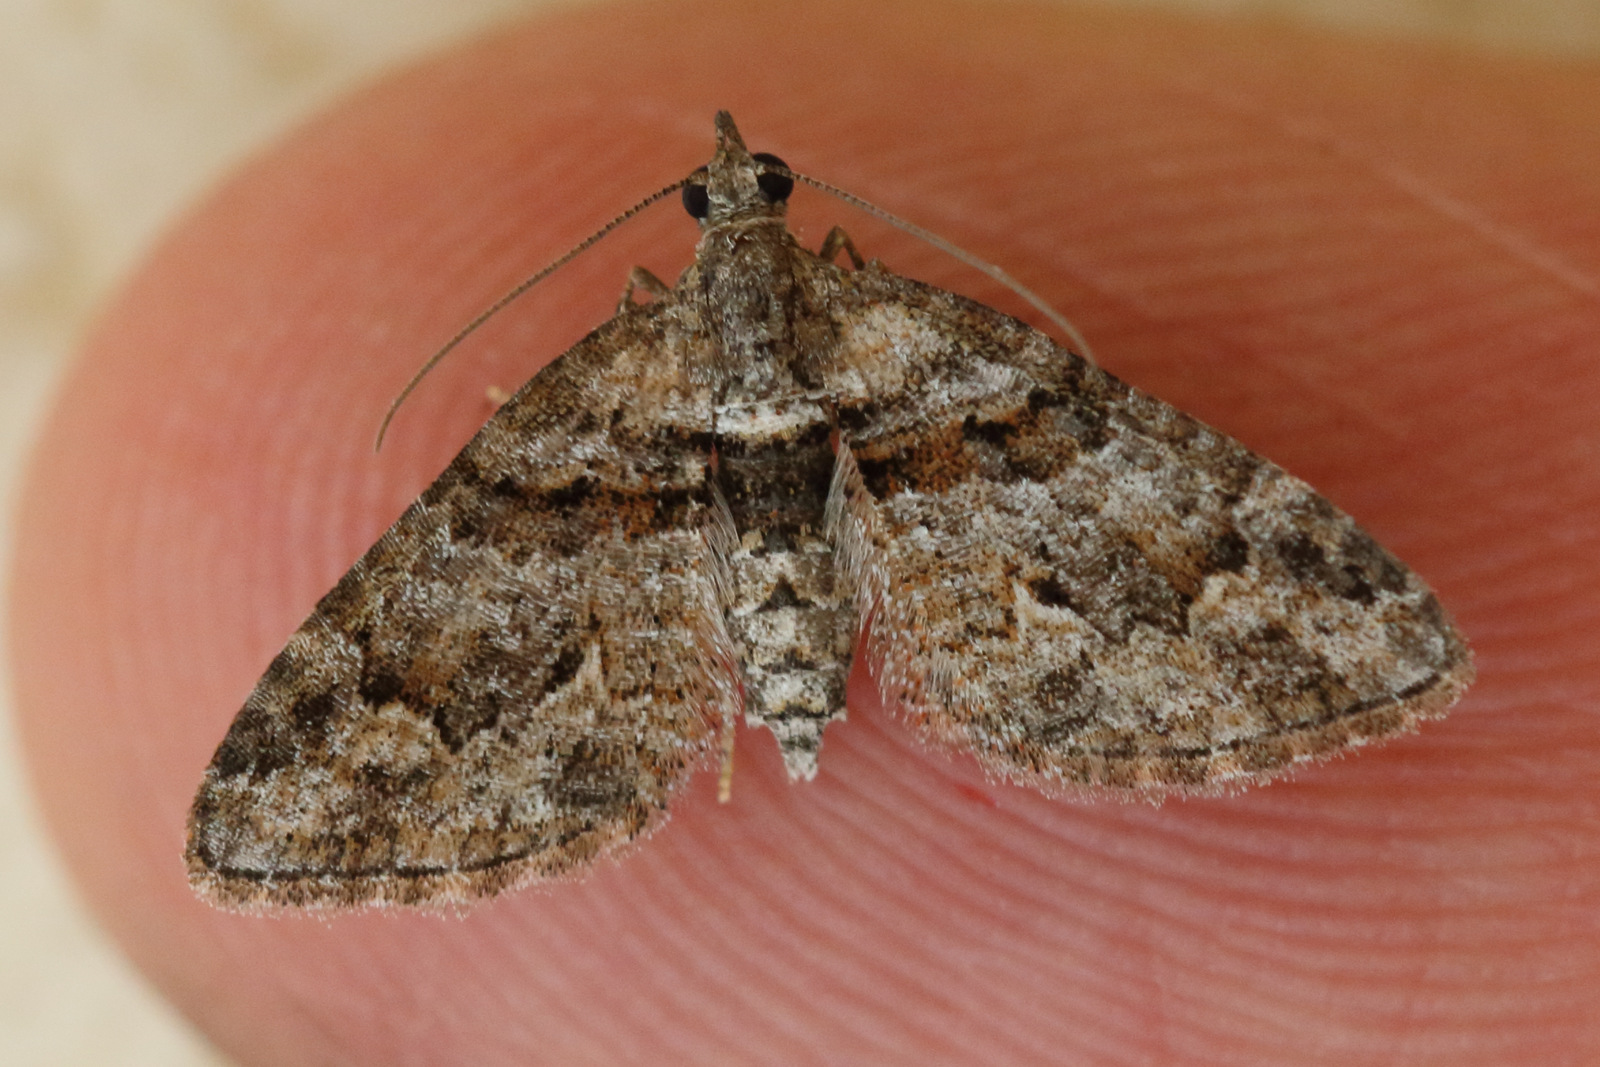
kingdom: Animalia
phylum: Arthropoda
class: Insecta
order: Lepidoptera
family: Geometridae
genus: Phrissogonus
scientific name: Phrissogonus laticostata
